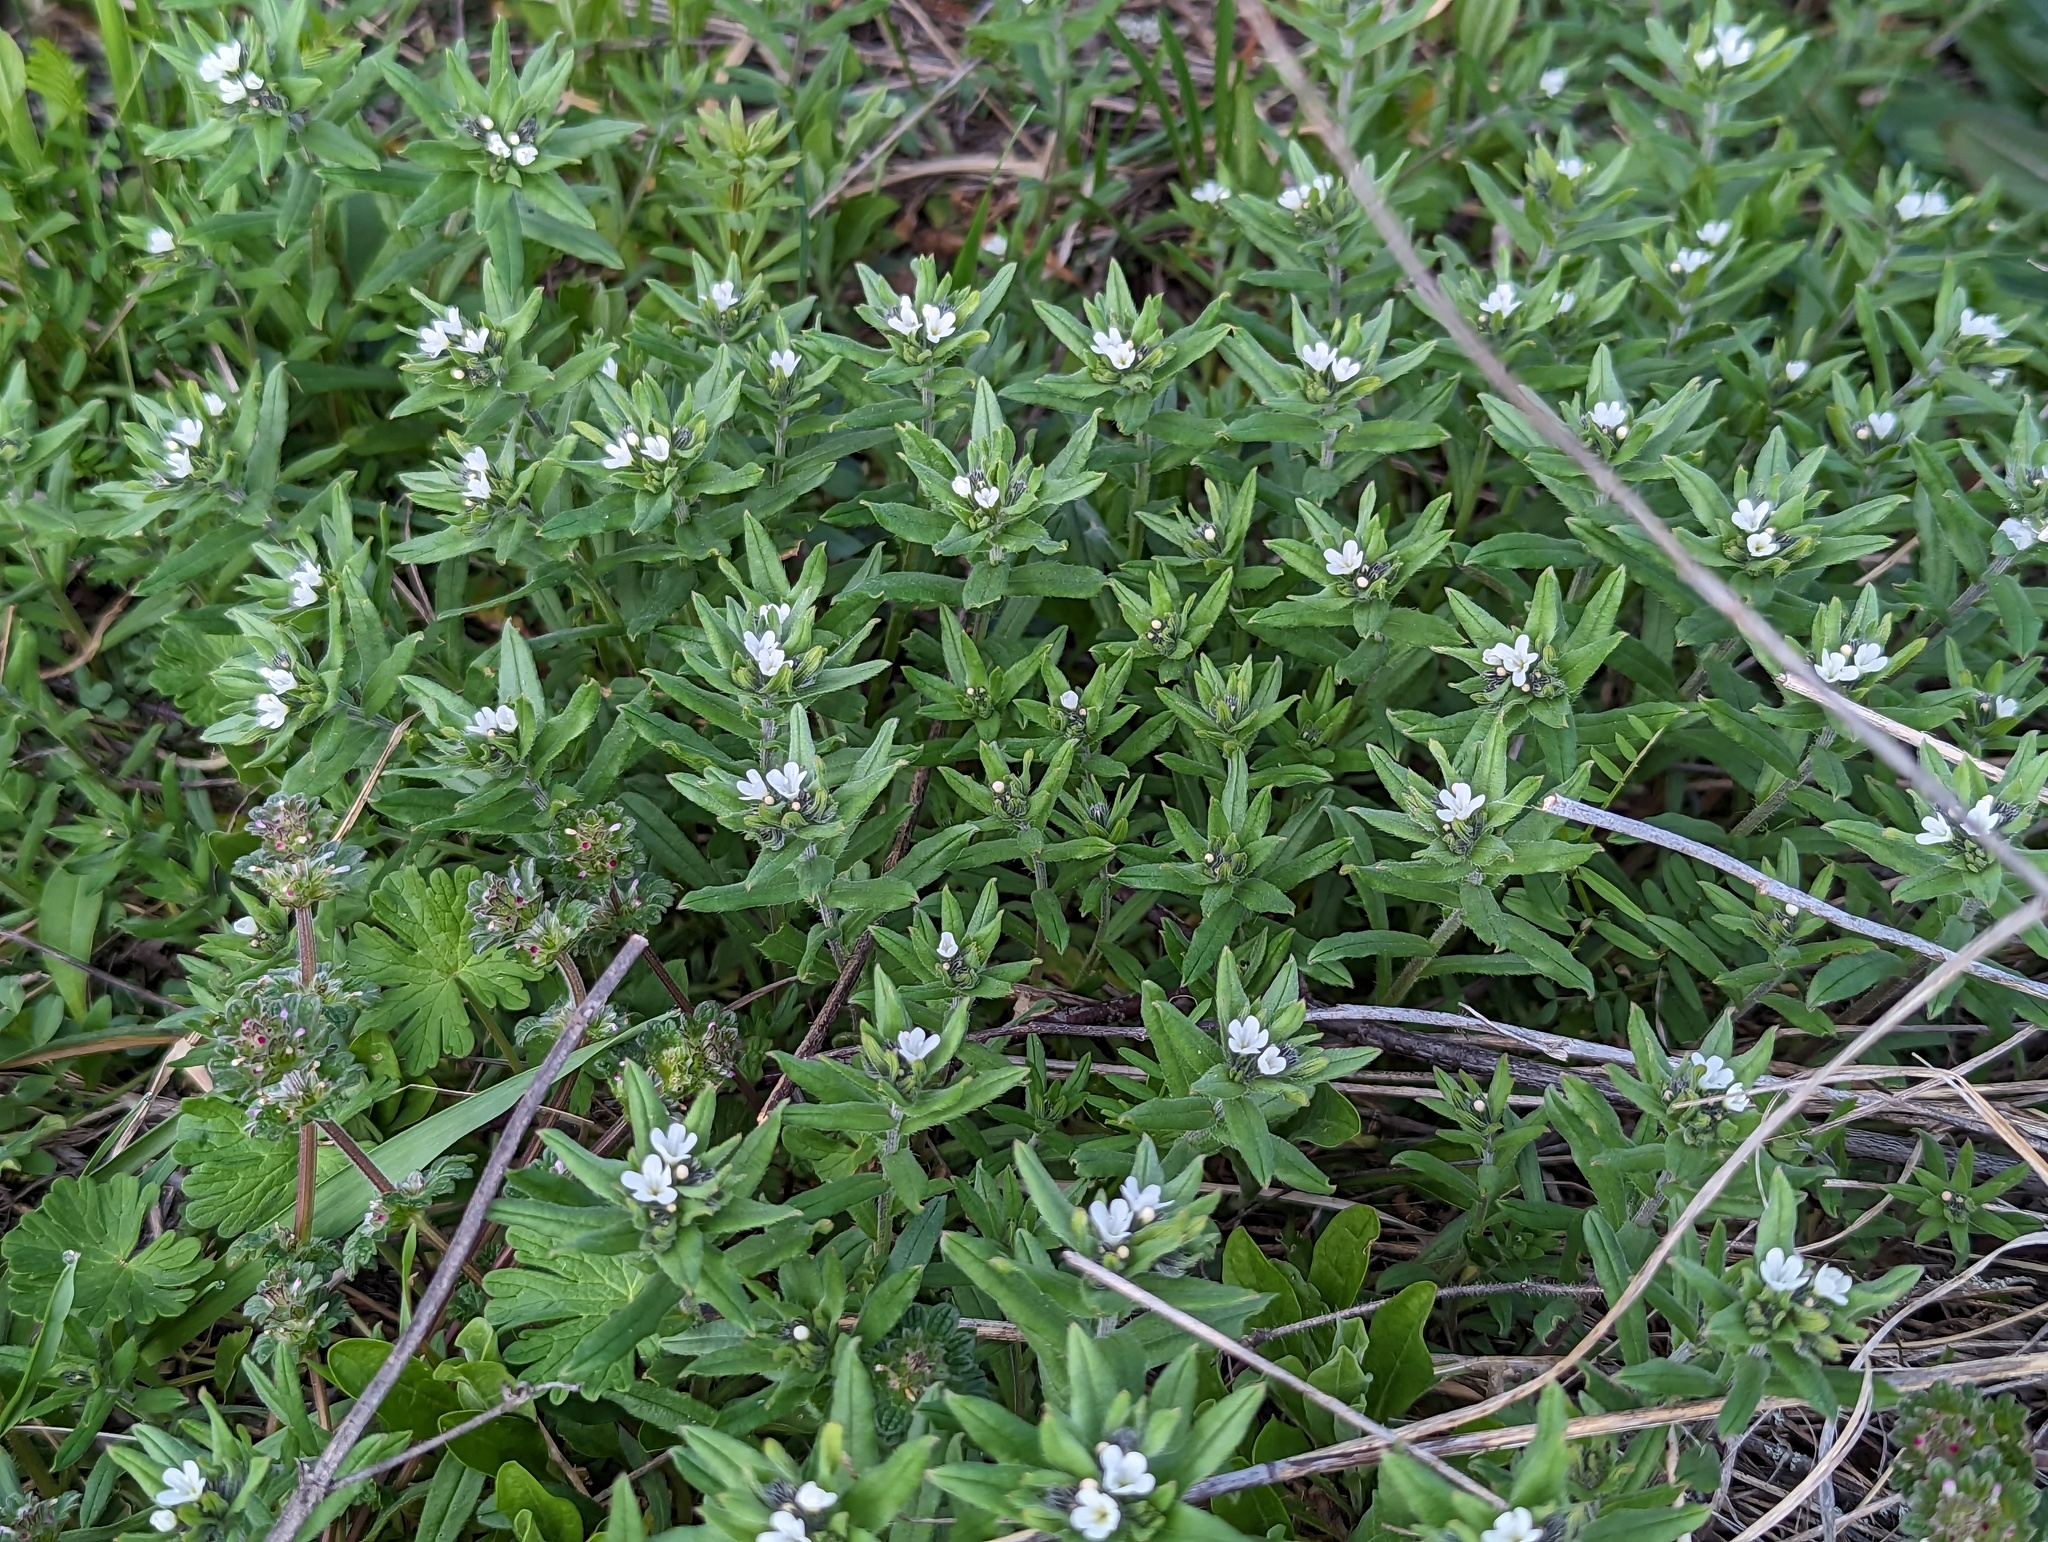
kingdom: Plantae
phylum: Tracheophyta
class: Magnoliopsida
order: Boraginales
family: Boraginaceae
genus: Buglossoides
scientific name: Buglossoides arvensis
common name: Corn gromwell
